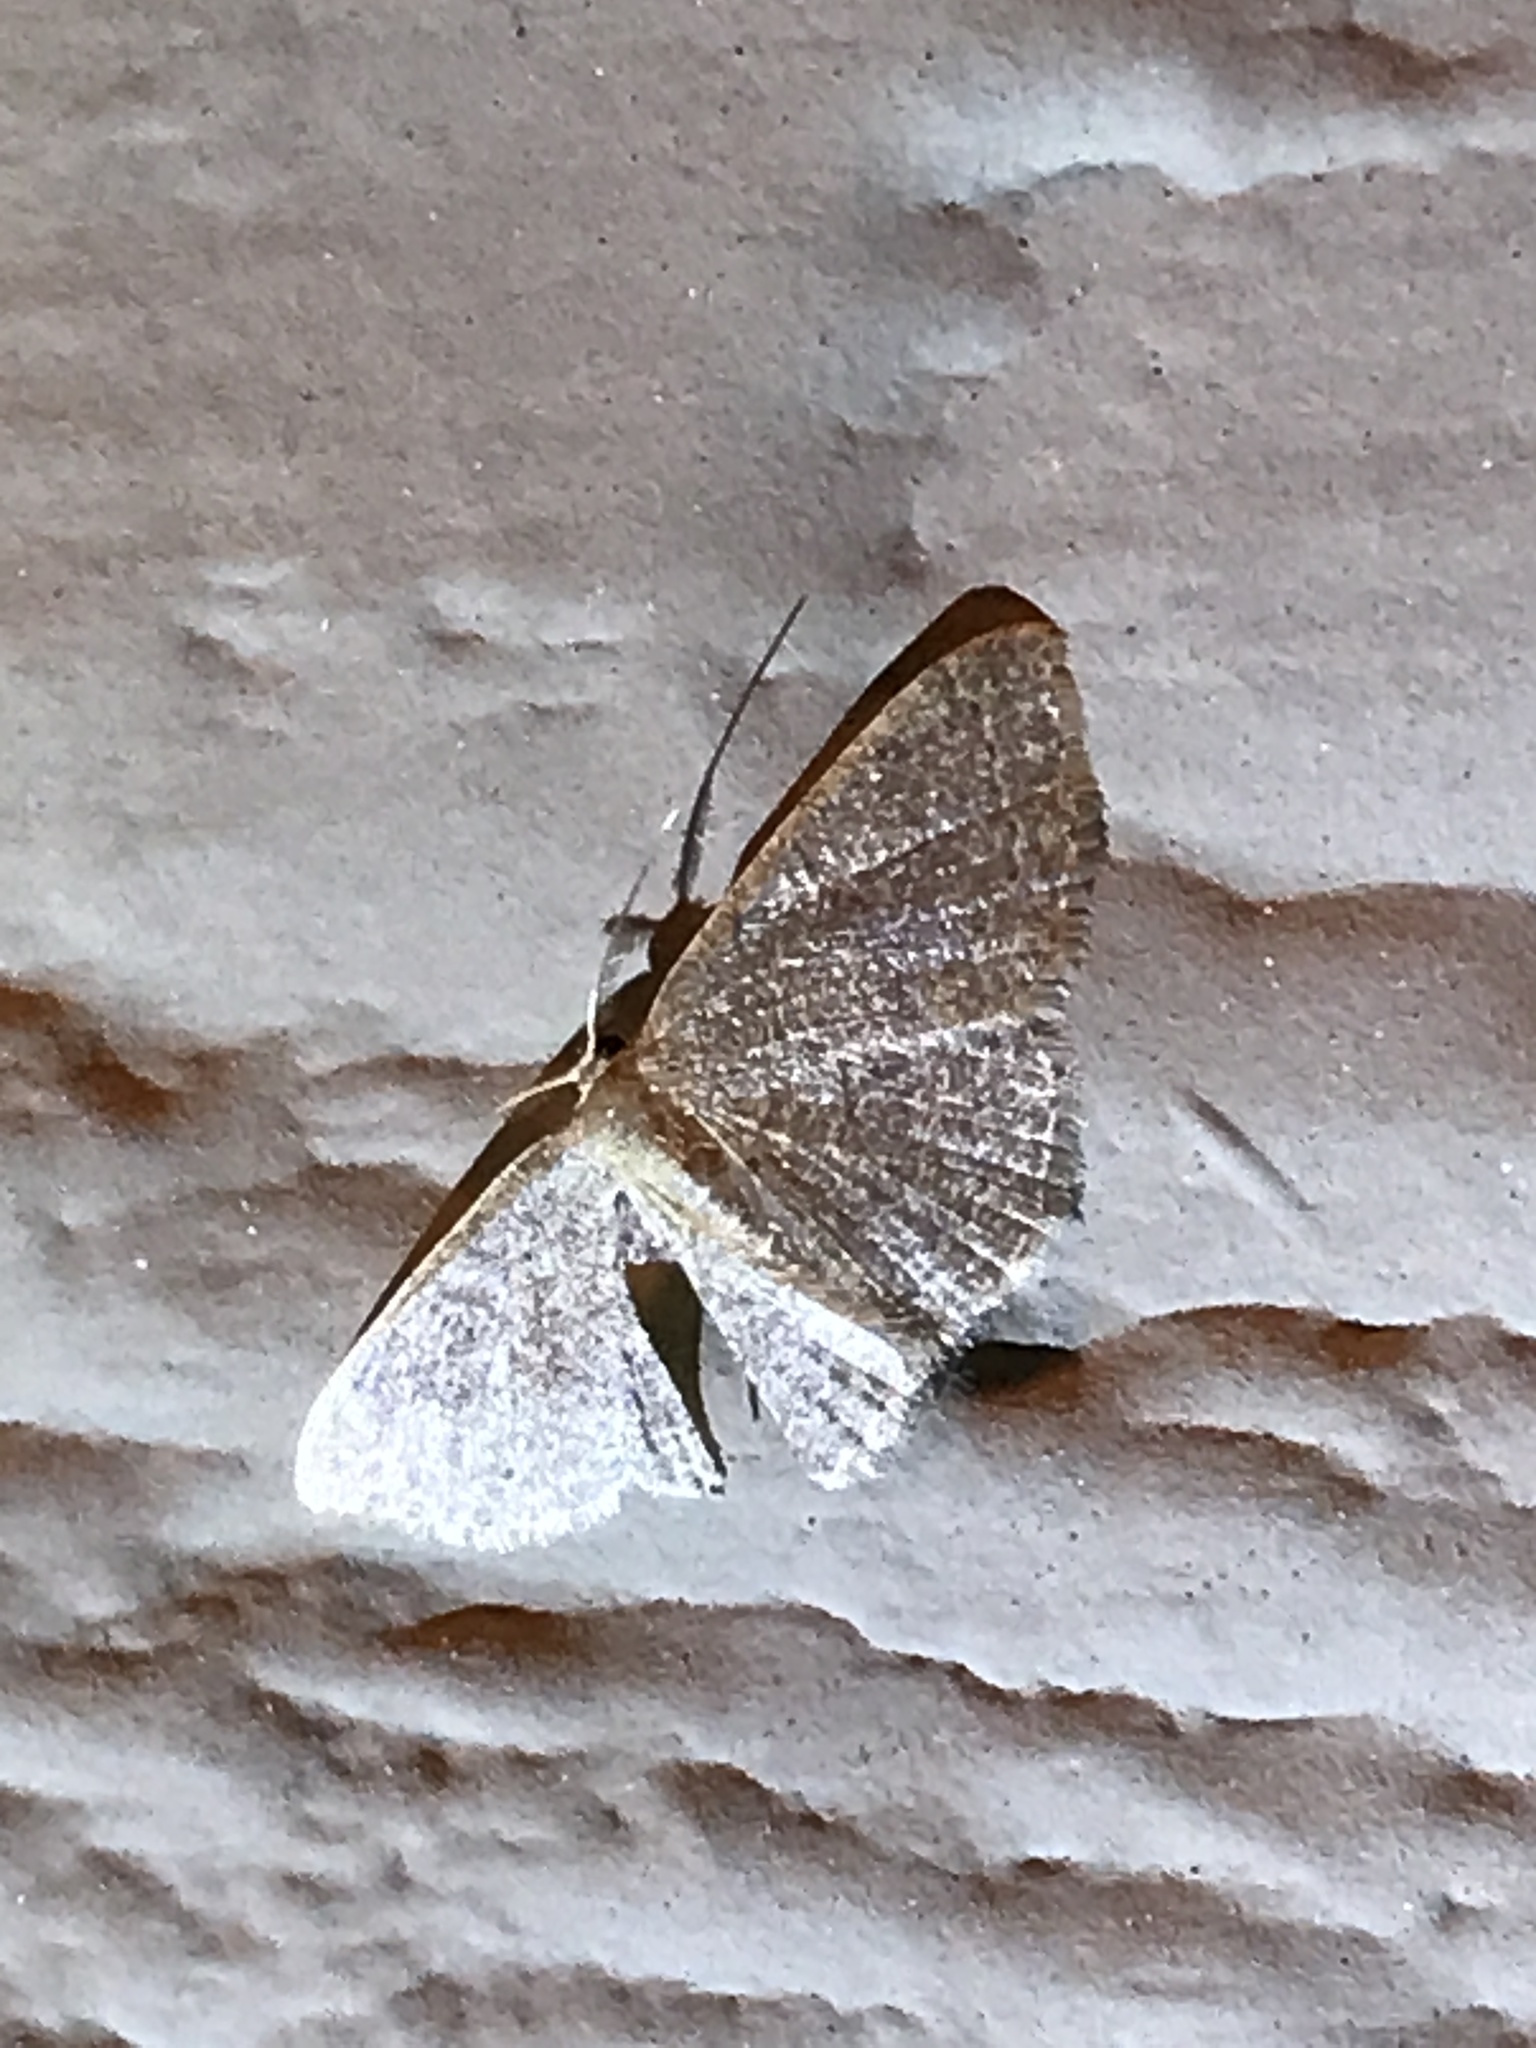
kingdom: Animalia
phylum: Arthropoda
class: Insecta
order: Lepidoptera
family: Geometridae
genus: Pleuroprucha
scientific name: Pleuroprucha insulsaria
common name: Common tan wave
